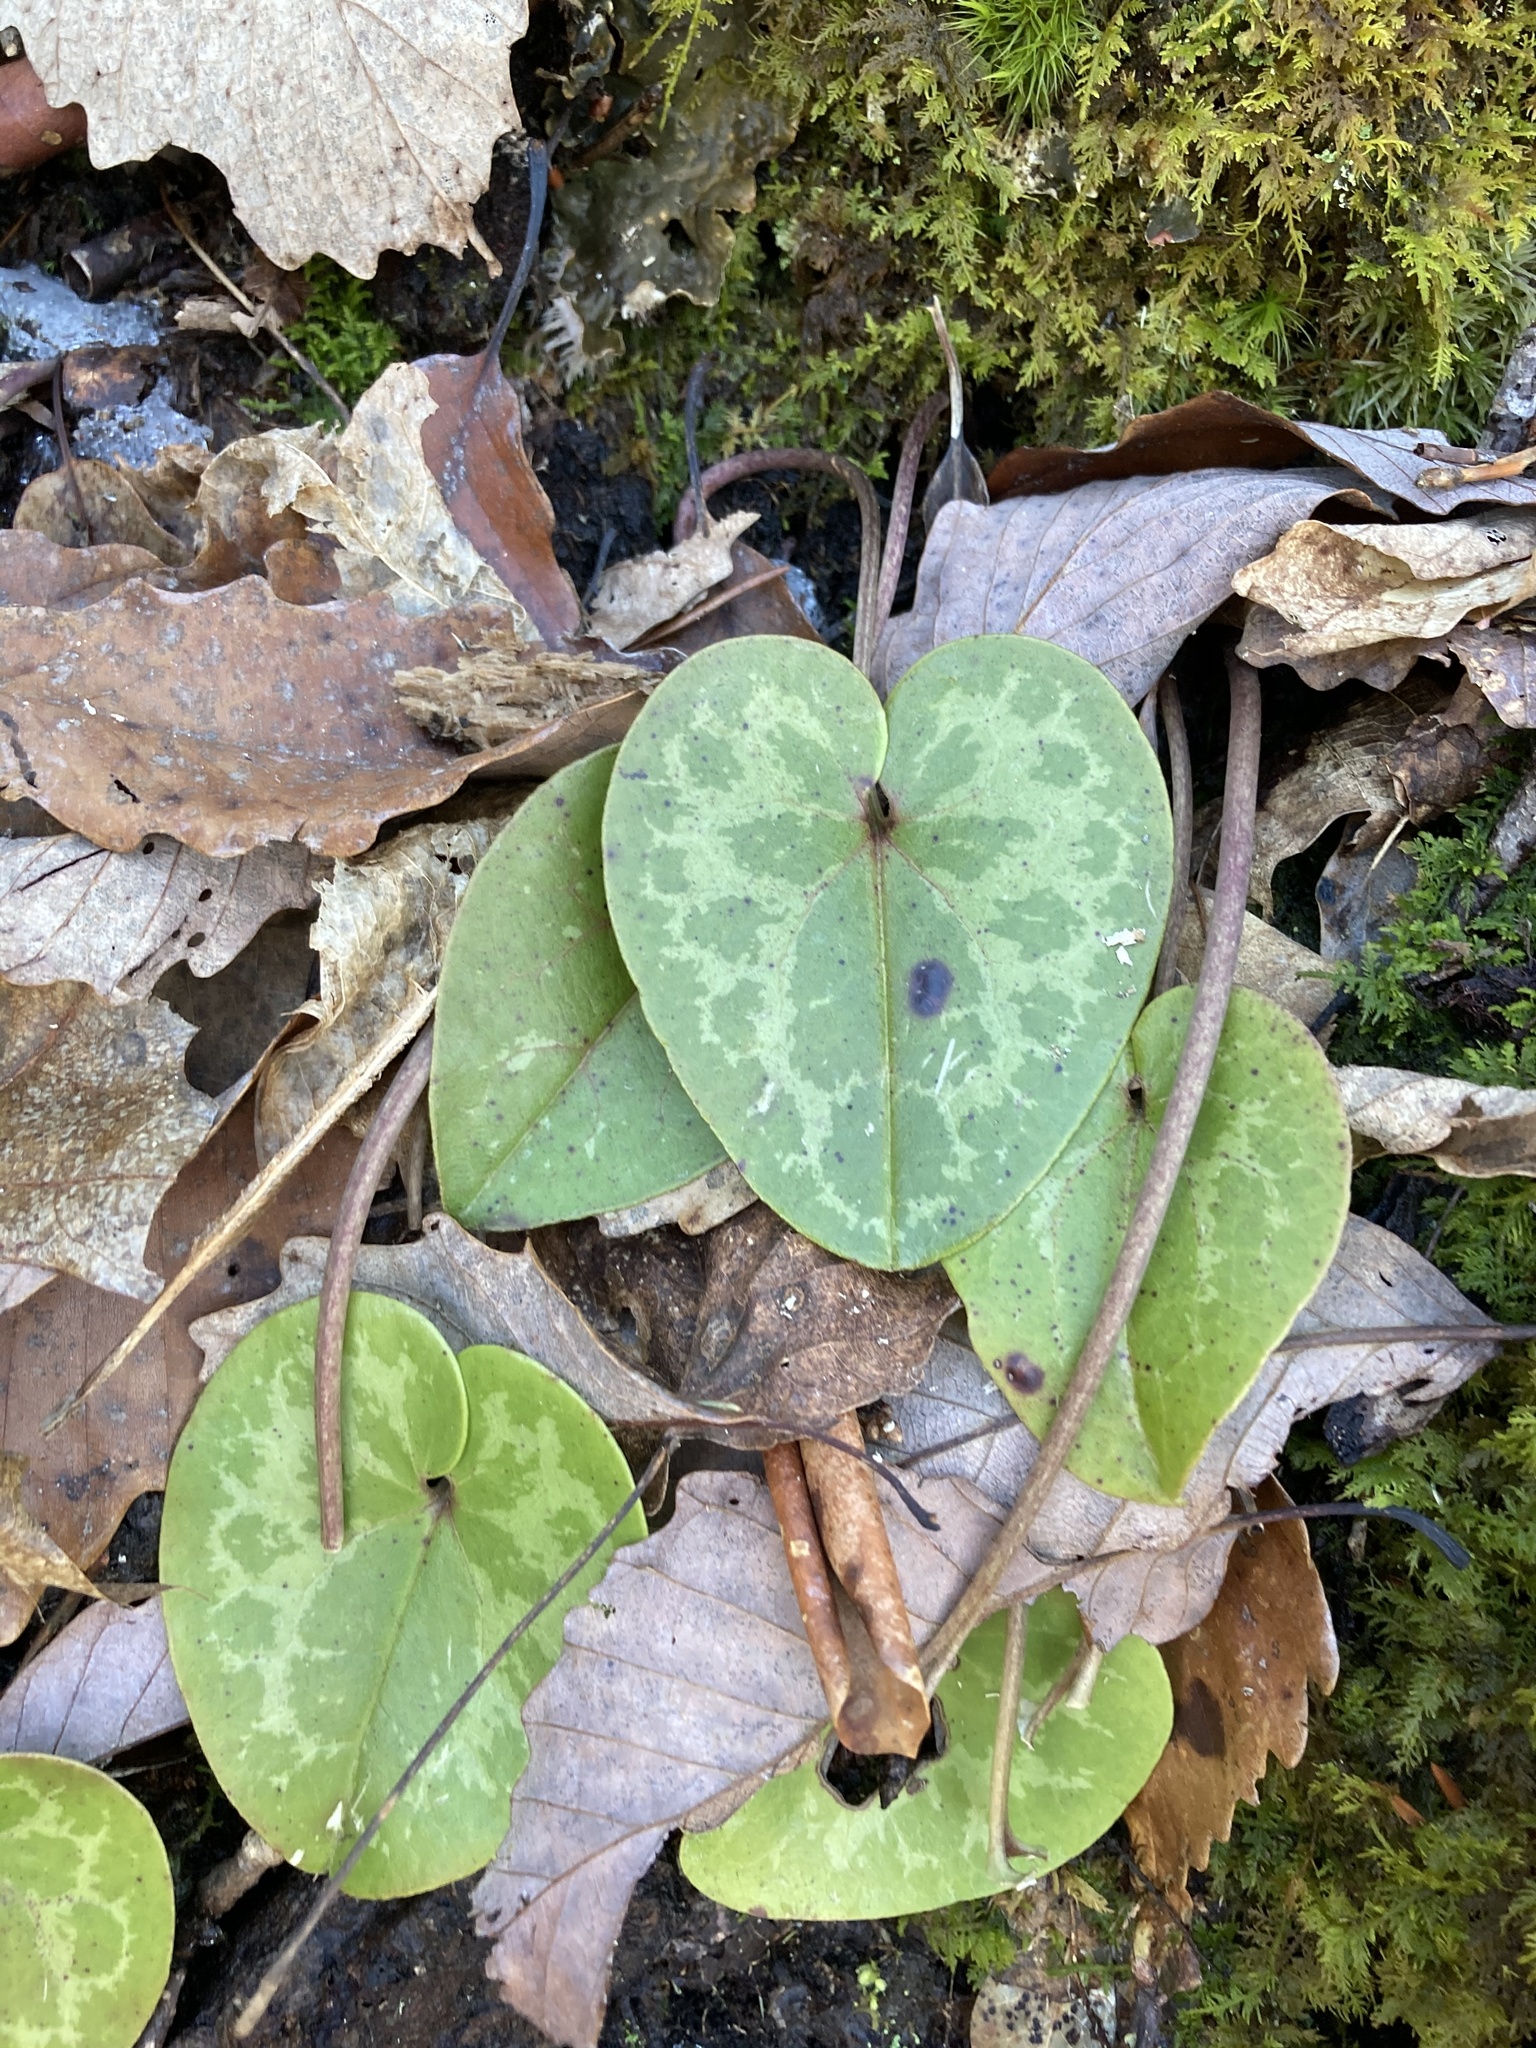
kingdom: Plantae
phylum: Tracheophyta
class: Magnoliopsida
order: Piperales
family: Aristolochiaceae
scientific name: Aristolochiaceae
